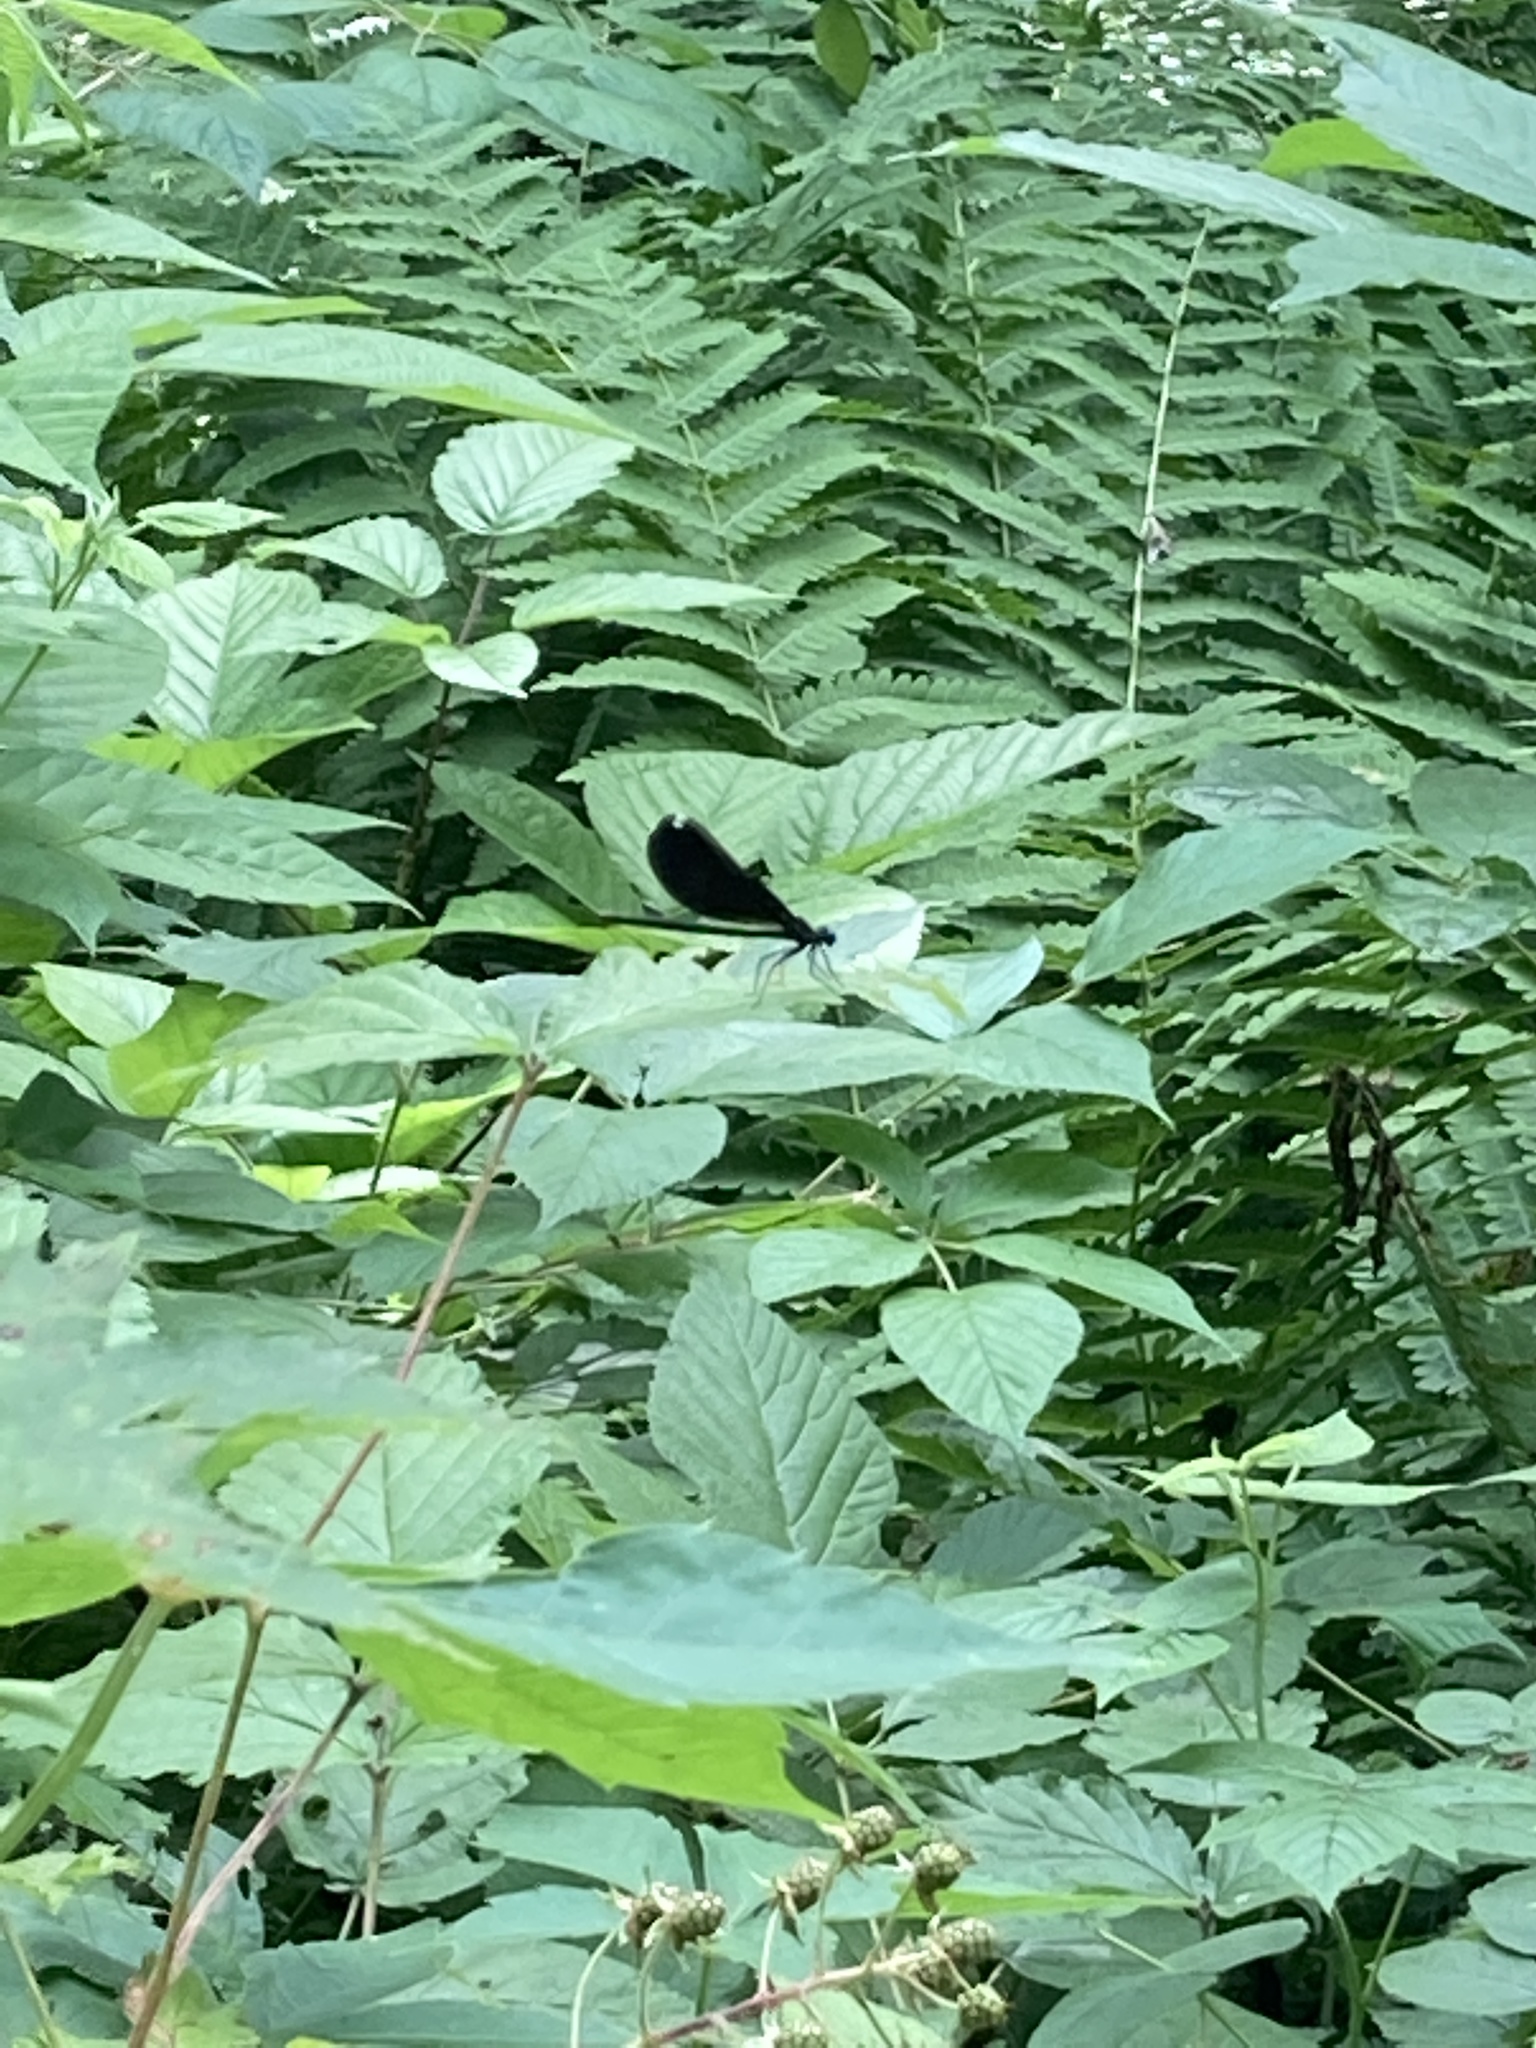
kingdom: Animalia
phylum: Arthropoda
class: Insecta
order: Odonata
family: Calopterygidae
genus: Calopteryx
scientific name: Calopteryx maculata
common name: Ebony jewelwing
